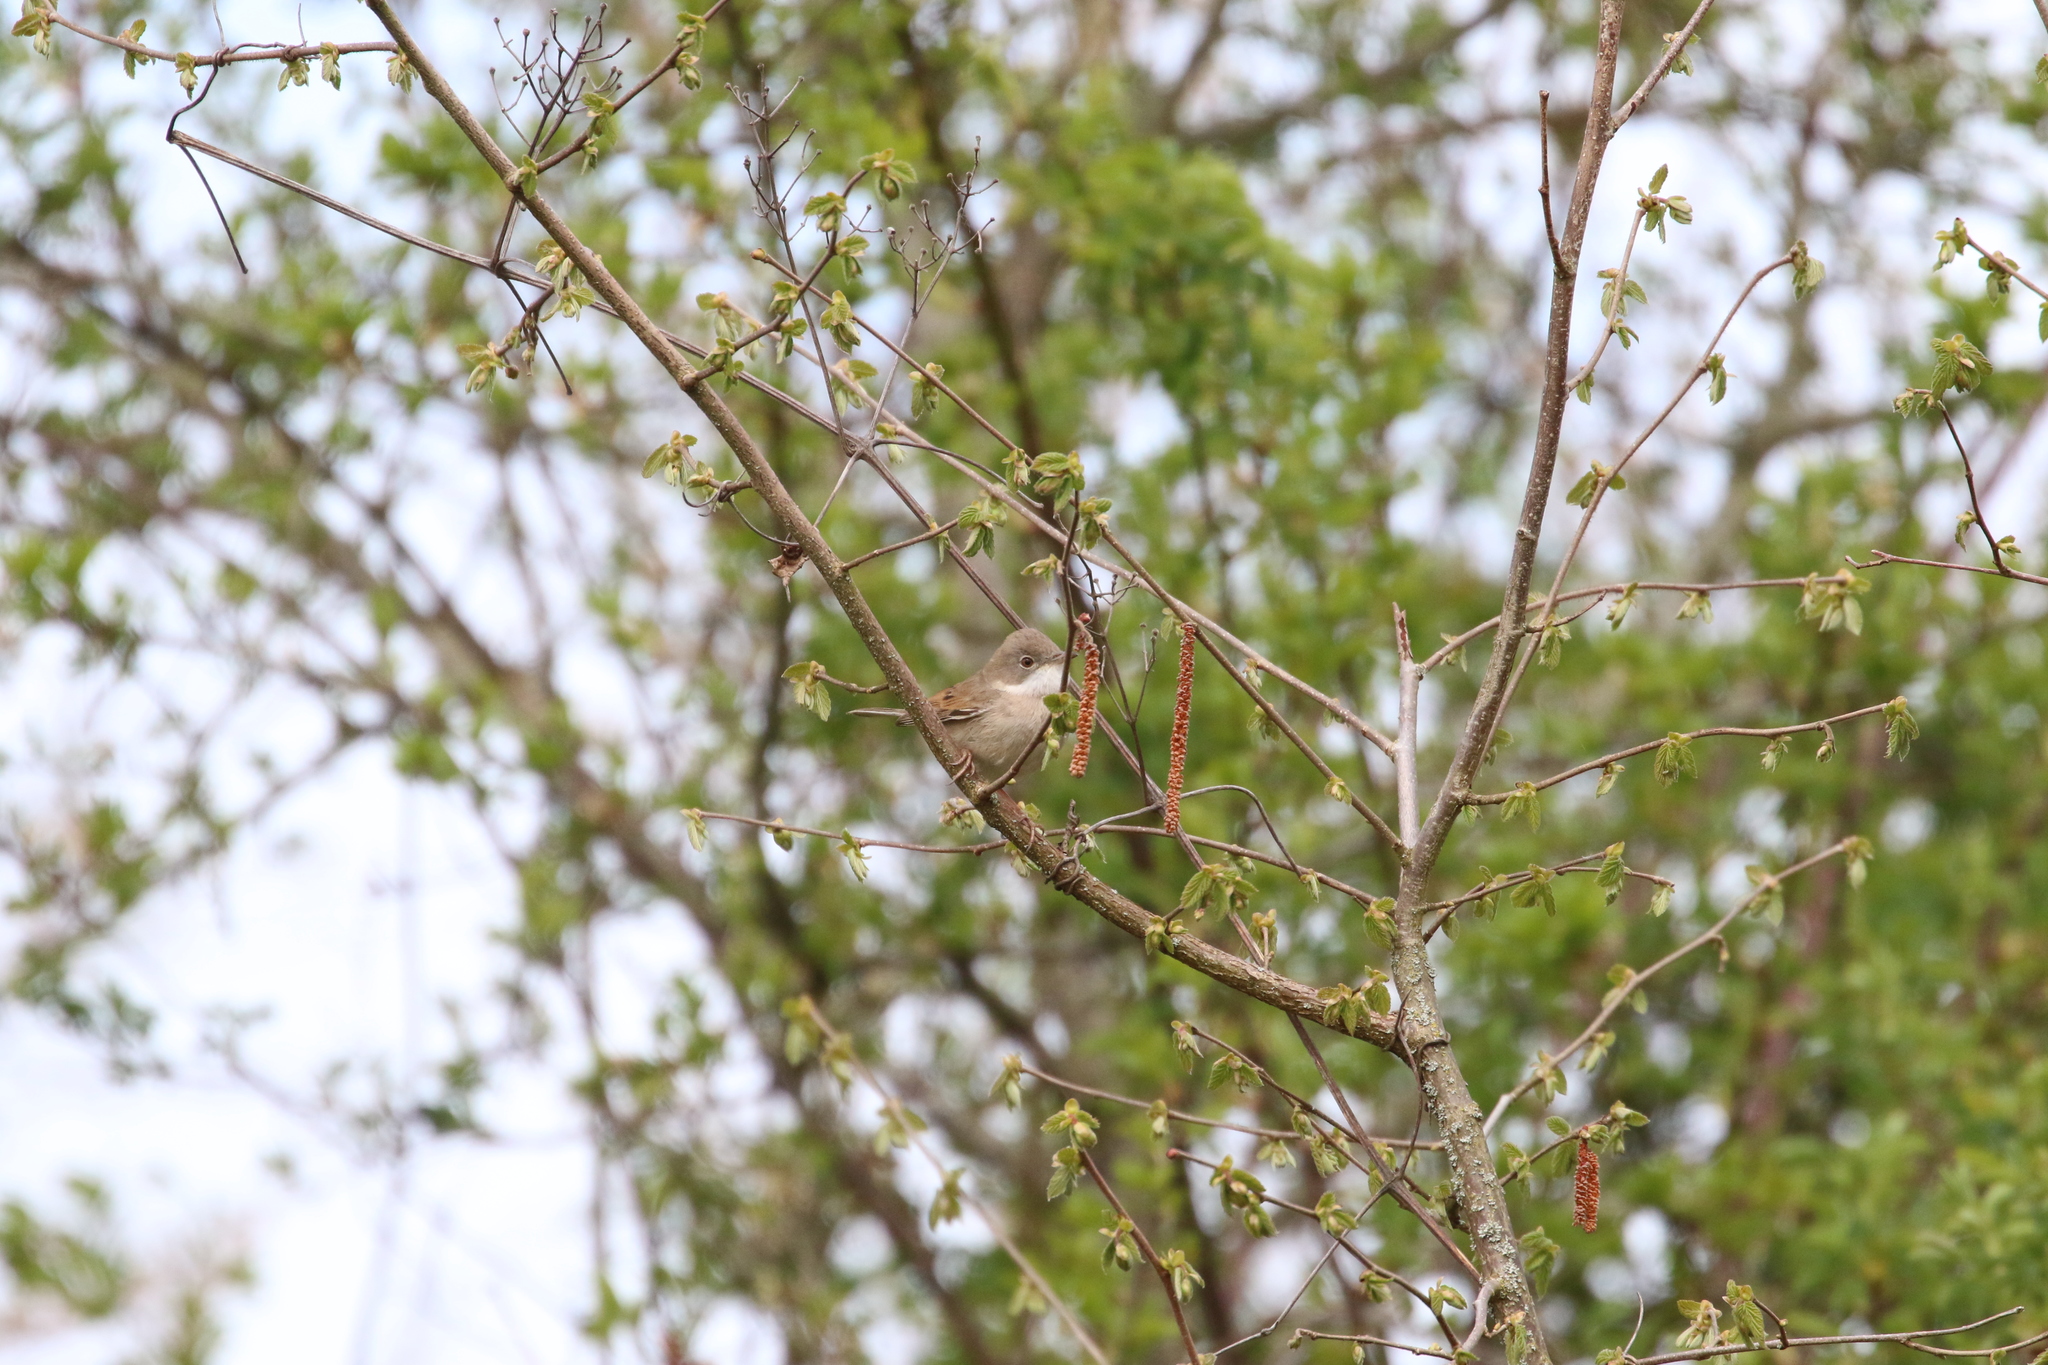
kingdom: Animalia
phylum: Chordata
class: Aves
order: Passeriformes
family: Sylviidae
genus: Sylvia
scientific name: Sylvia communis
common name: Common whitethroat
